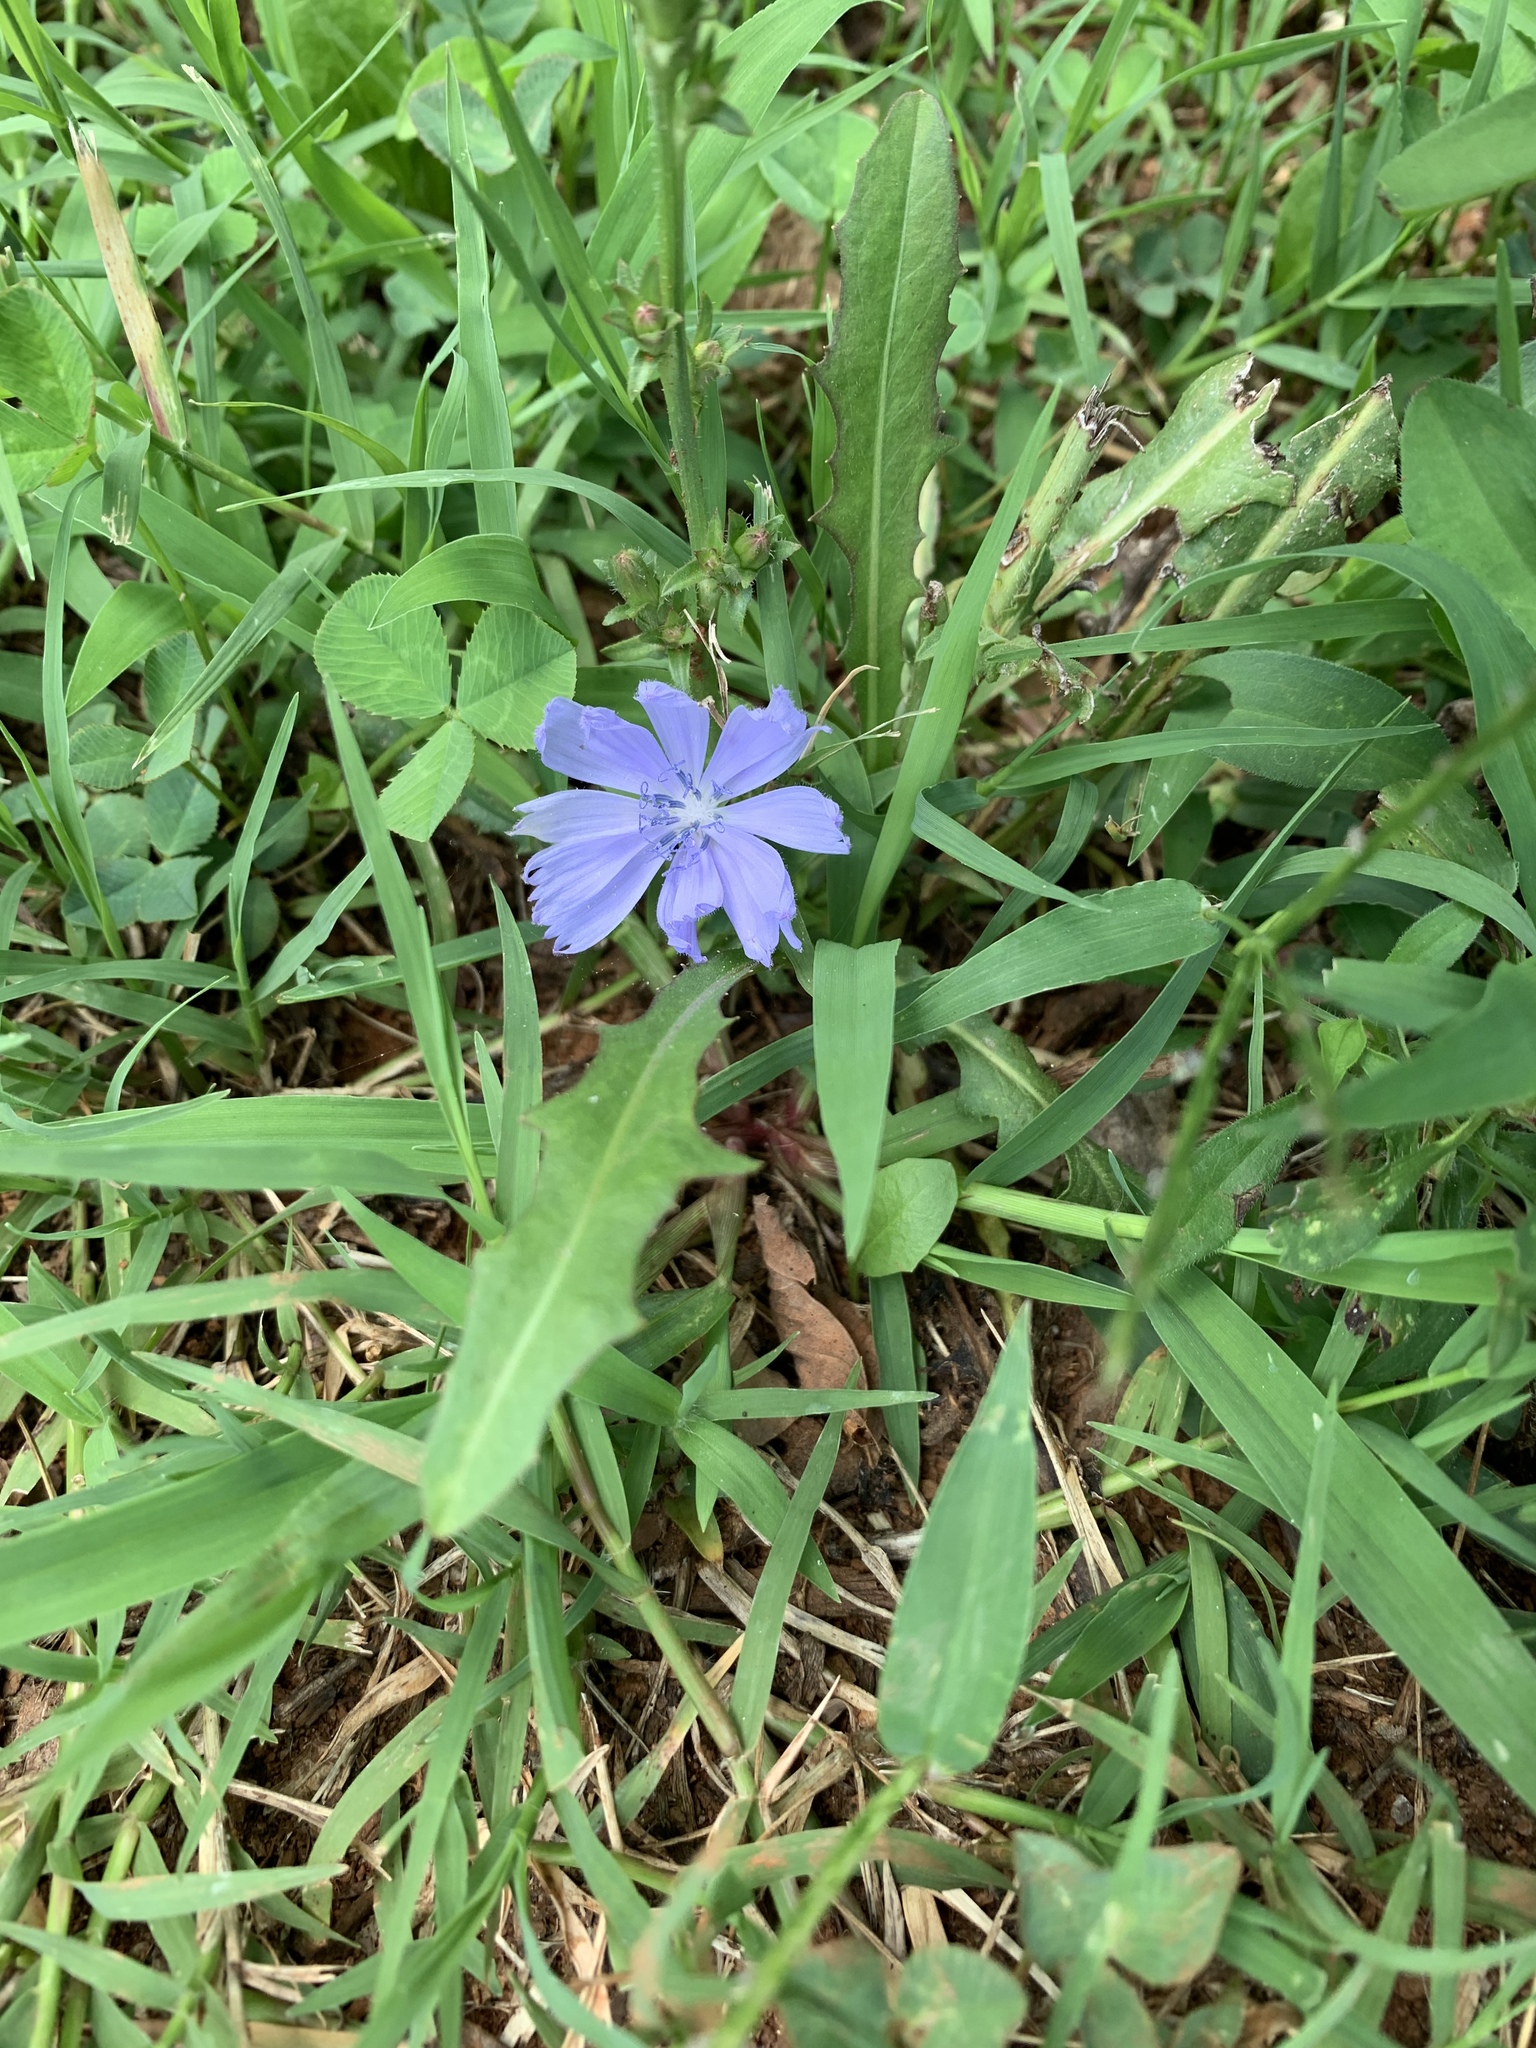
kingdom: Plantae
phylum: Tracheophyta
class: Magnoliopsida
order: Asterales
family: Asteraceae
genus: Cichorium
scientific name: Cichorium intybus
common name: Chicory
